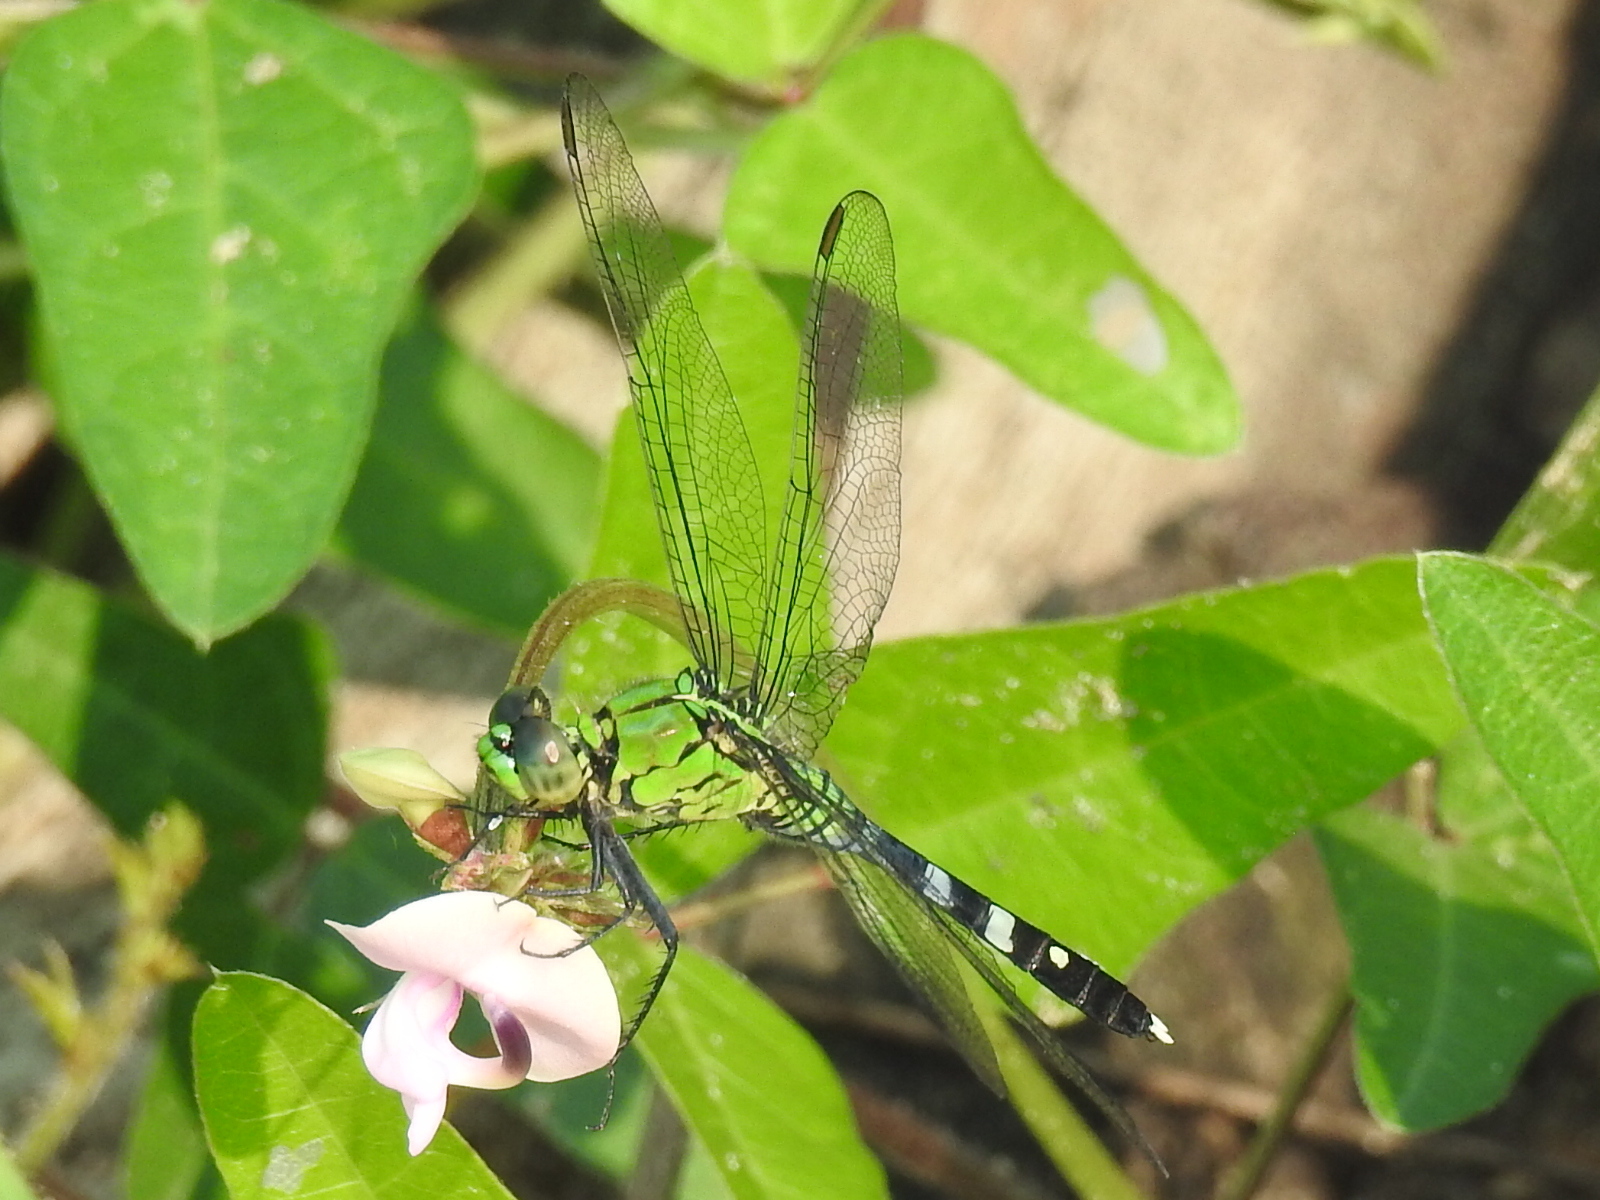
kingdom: Animalia
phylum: Arthropoda
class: Insecta
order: Odonata
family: Libellulidae
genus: Erythemis
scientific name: Erythemis simplicicollis
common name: Eastern pondhawk
